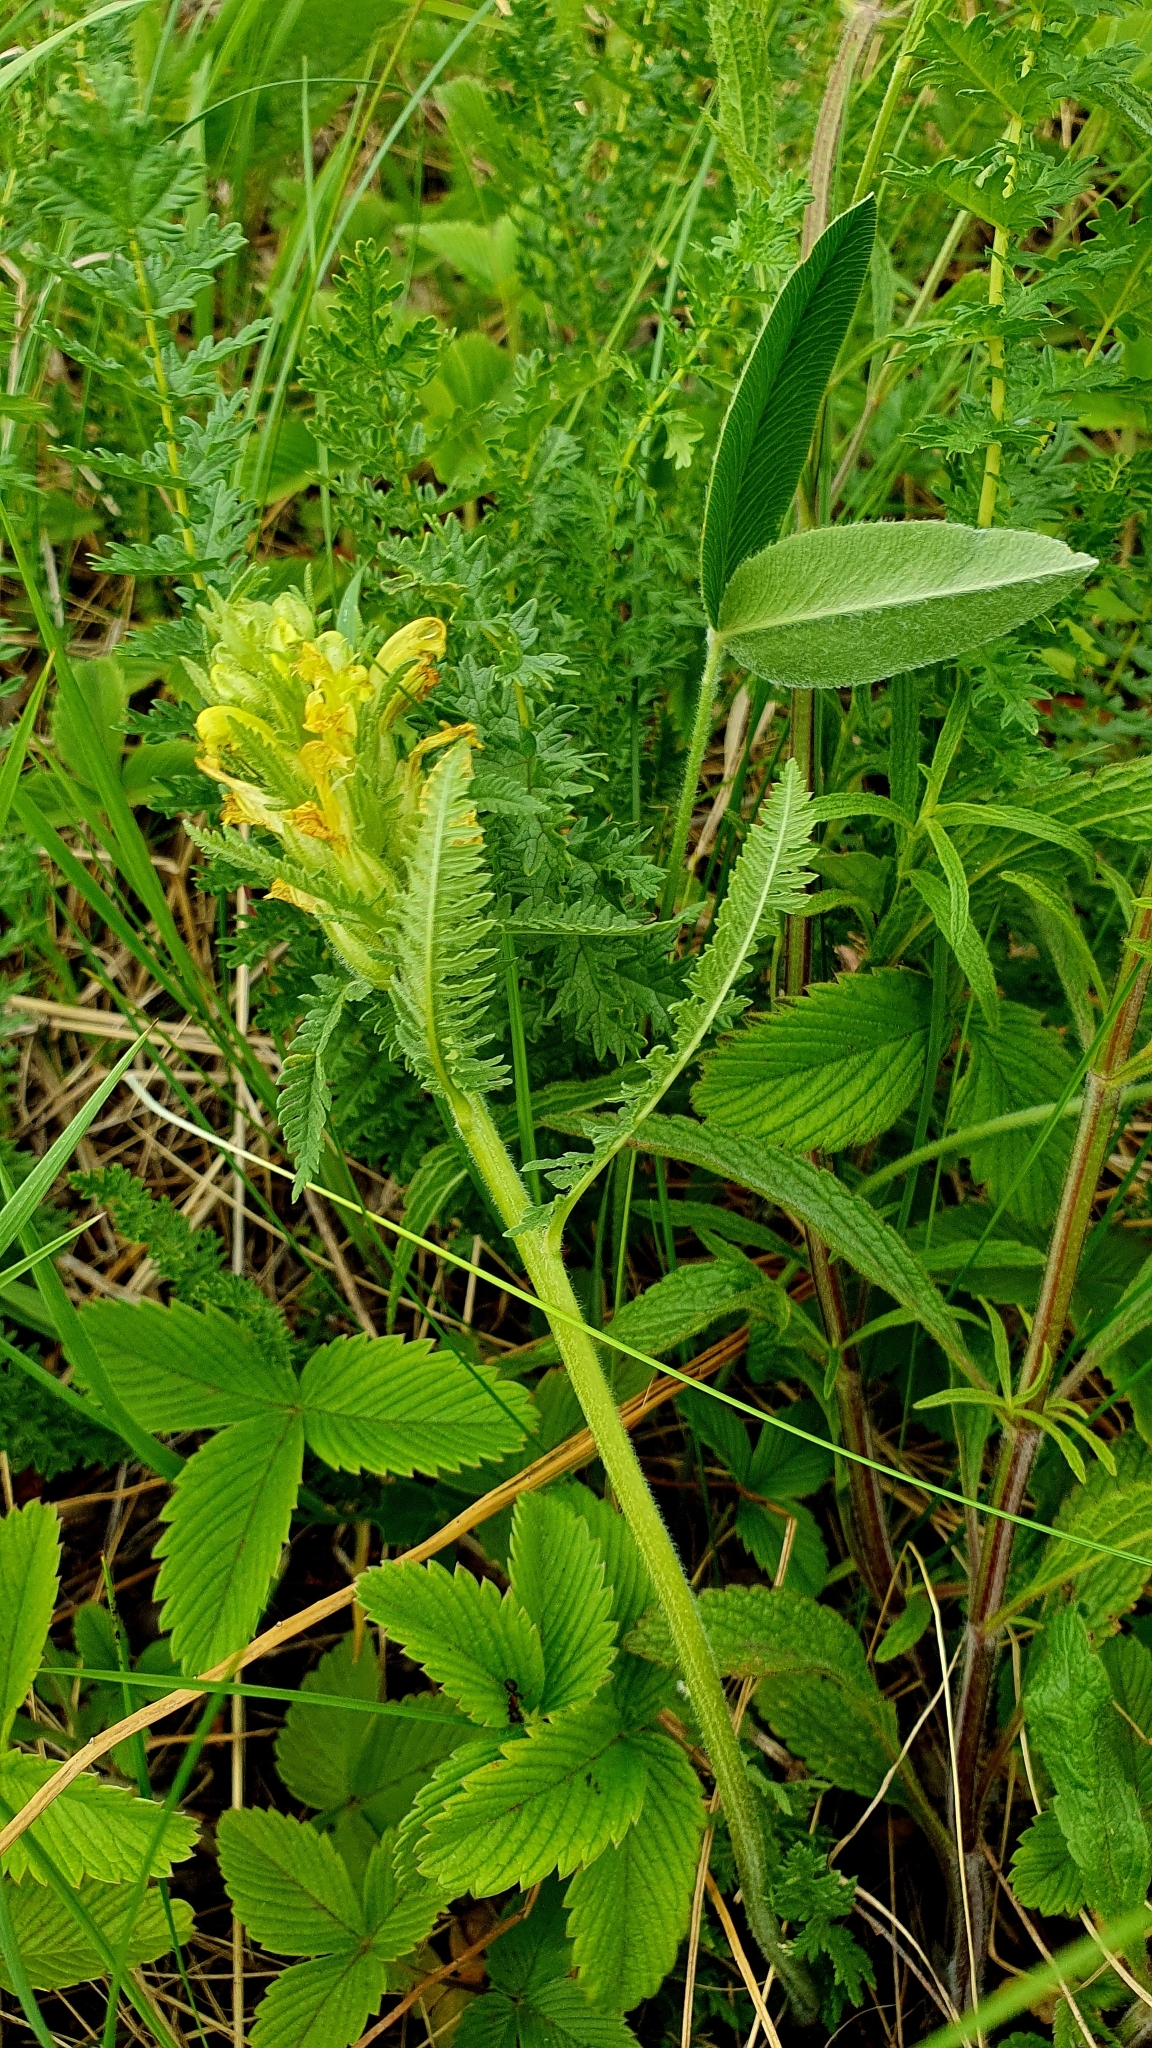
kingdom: Plantae
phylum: Tracheophyta
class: Magnoliopsida
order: Lamiales
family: Orobanchaceae
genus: Pedicularis
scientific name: Pedicularis kaufmannii
